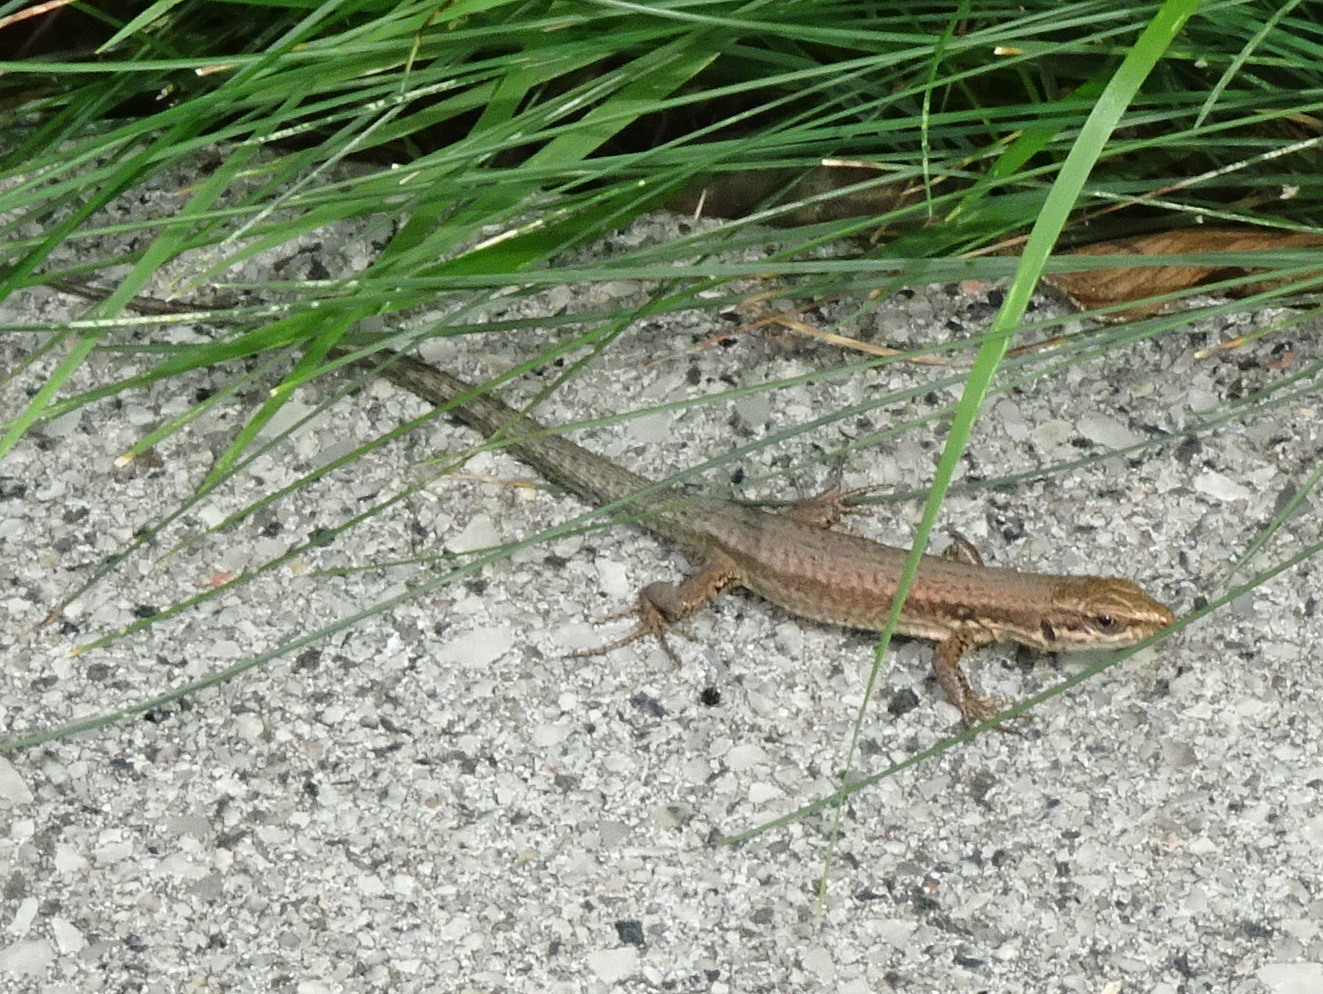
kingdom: Animalia
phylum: Chordata
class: Squamata
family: Lacertidae
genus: Podarcis
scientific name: Podarcis muralis
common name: Common wall lizard
